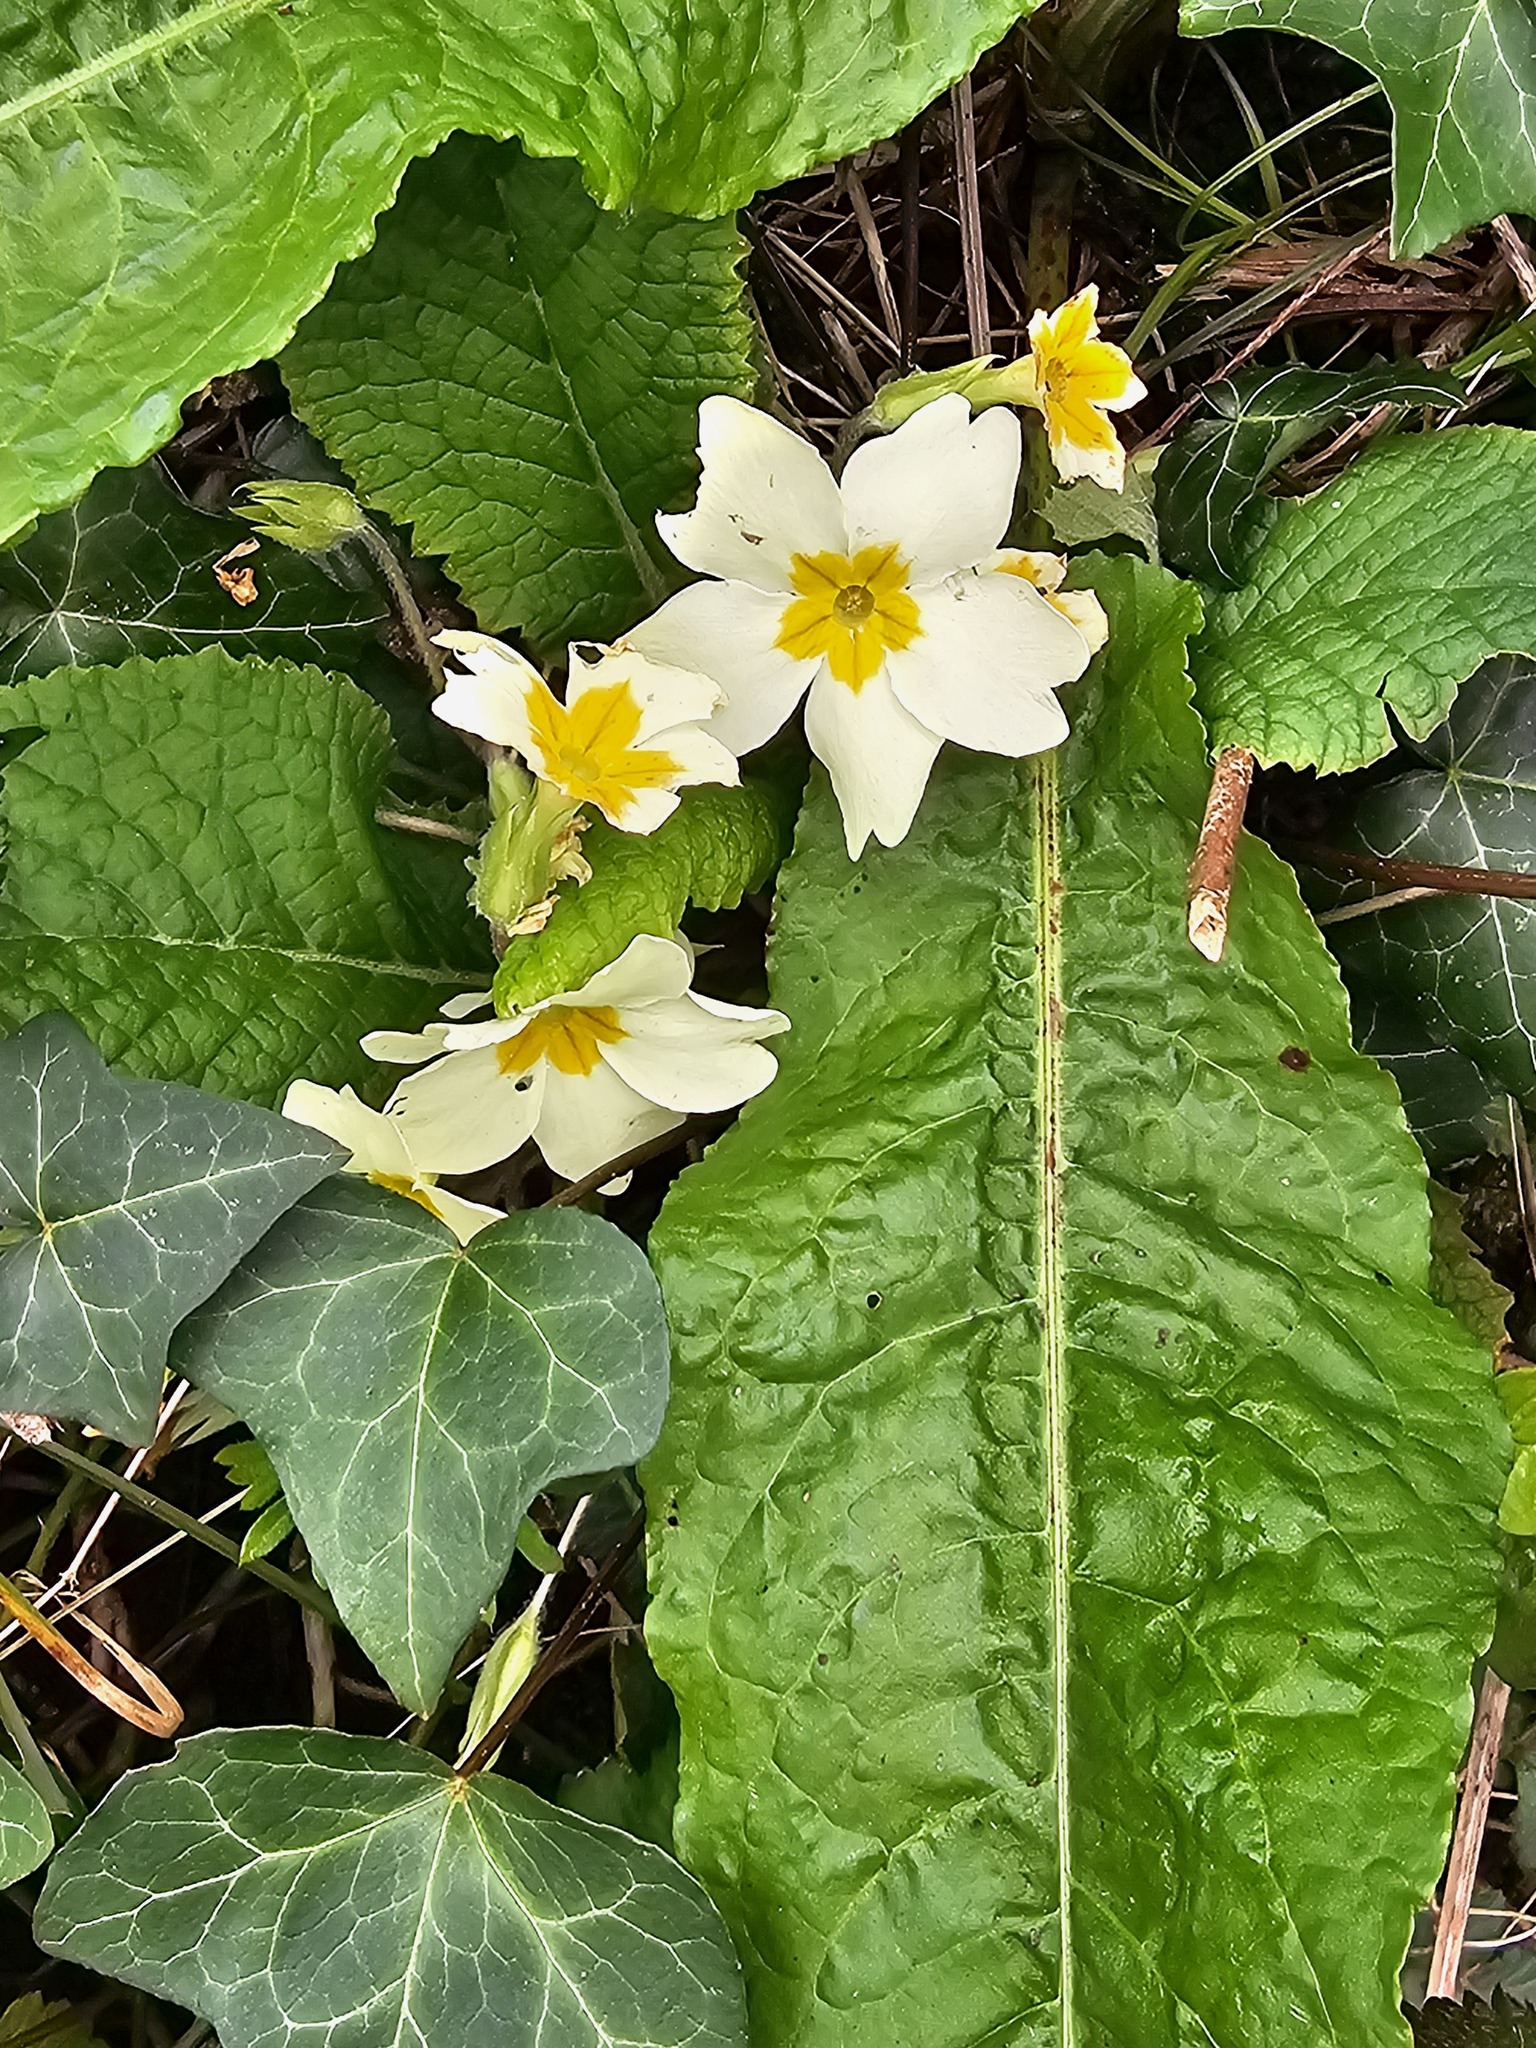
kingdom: Plantae
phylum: Tracheophyta
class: Magnoliopsida
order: Ericales
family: Primulaceae
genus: Primula
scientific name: Primula vulgaris
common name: Primrose
